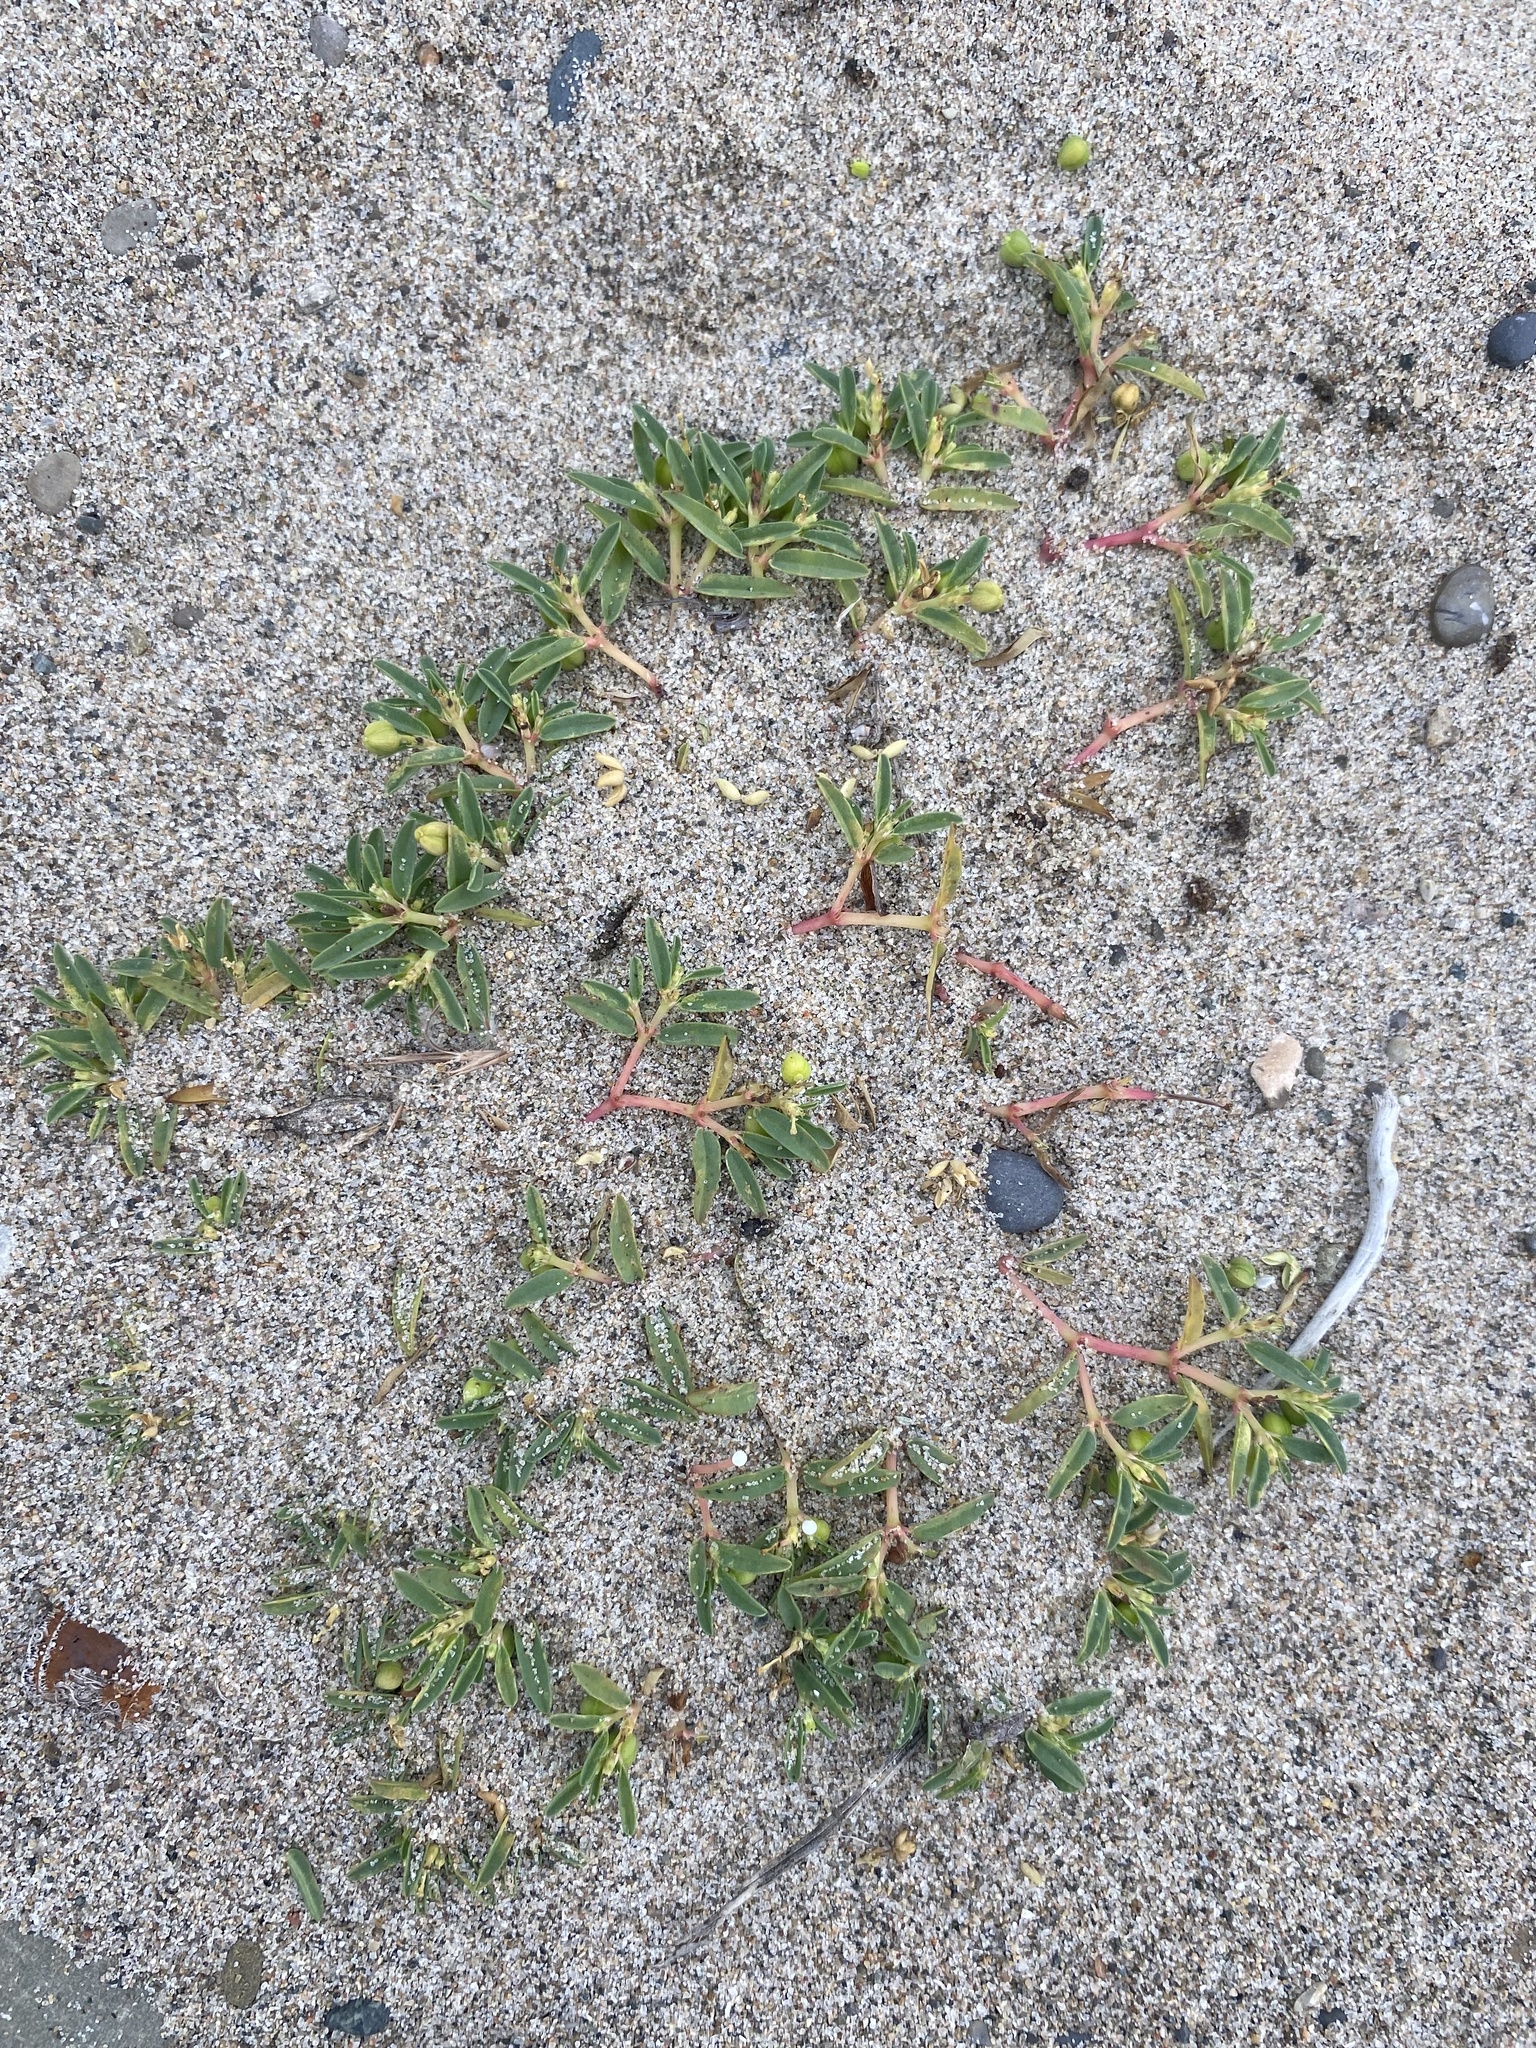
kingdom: Plantae
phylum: Tracheophyta
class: Magnoliopsida
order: Malpighiales
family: Euphorbiaceae
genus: Euphorbia
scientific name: Euphorbia polygonifolia
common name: Knotweed spurge
